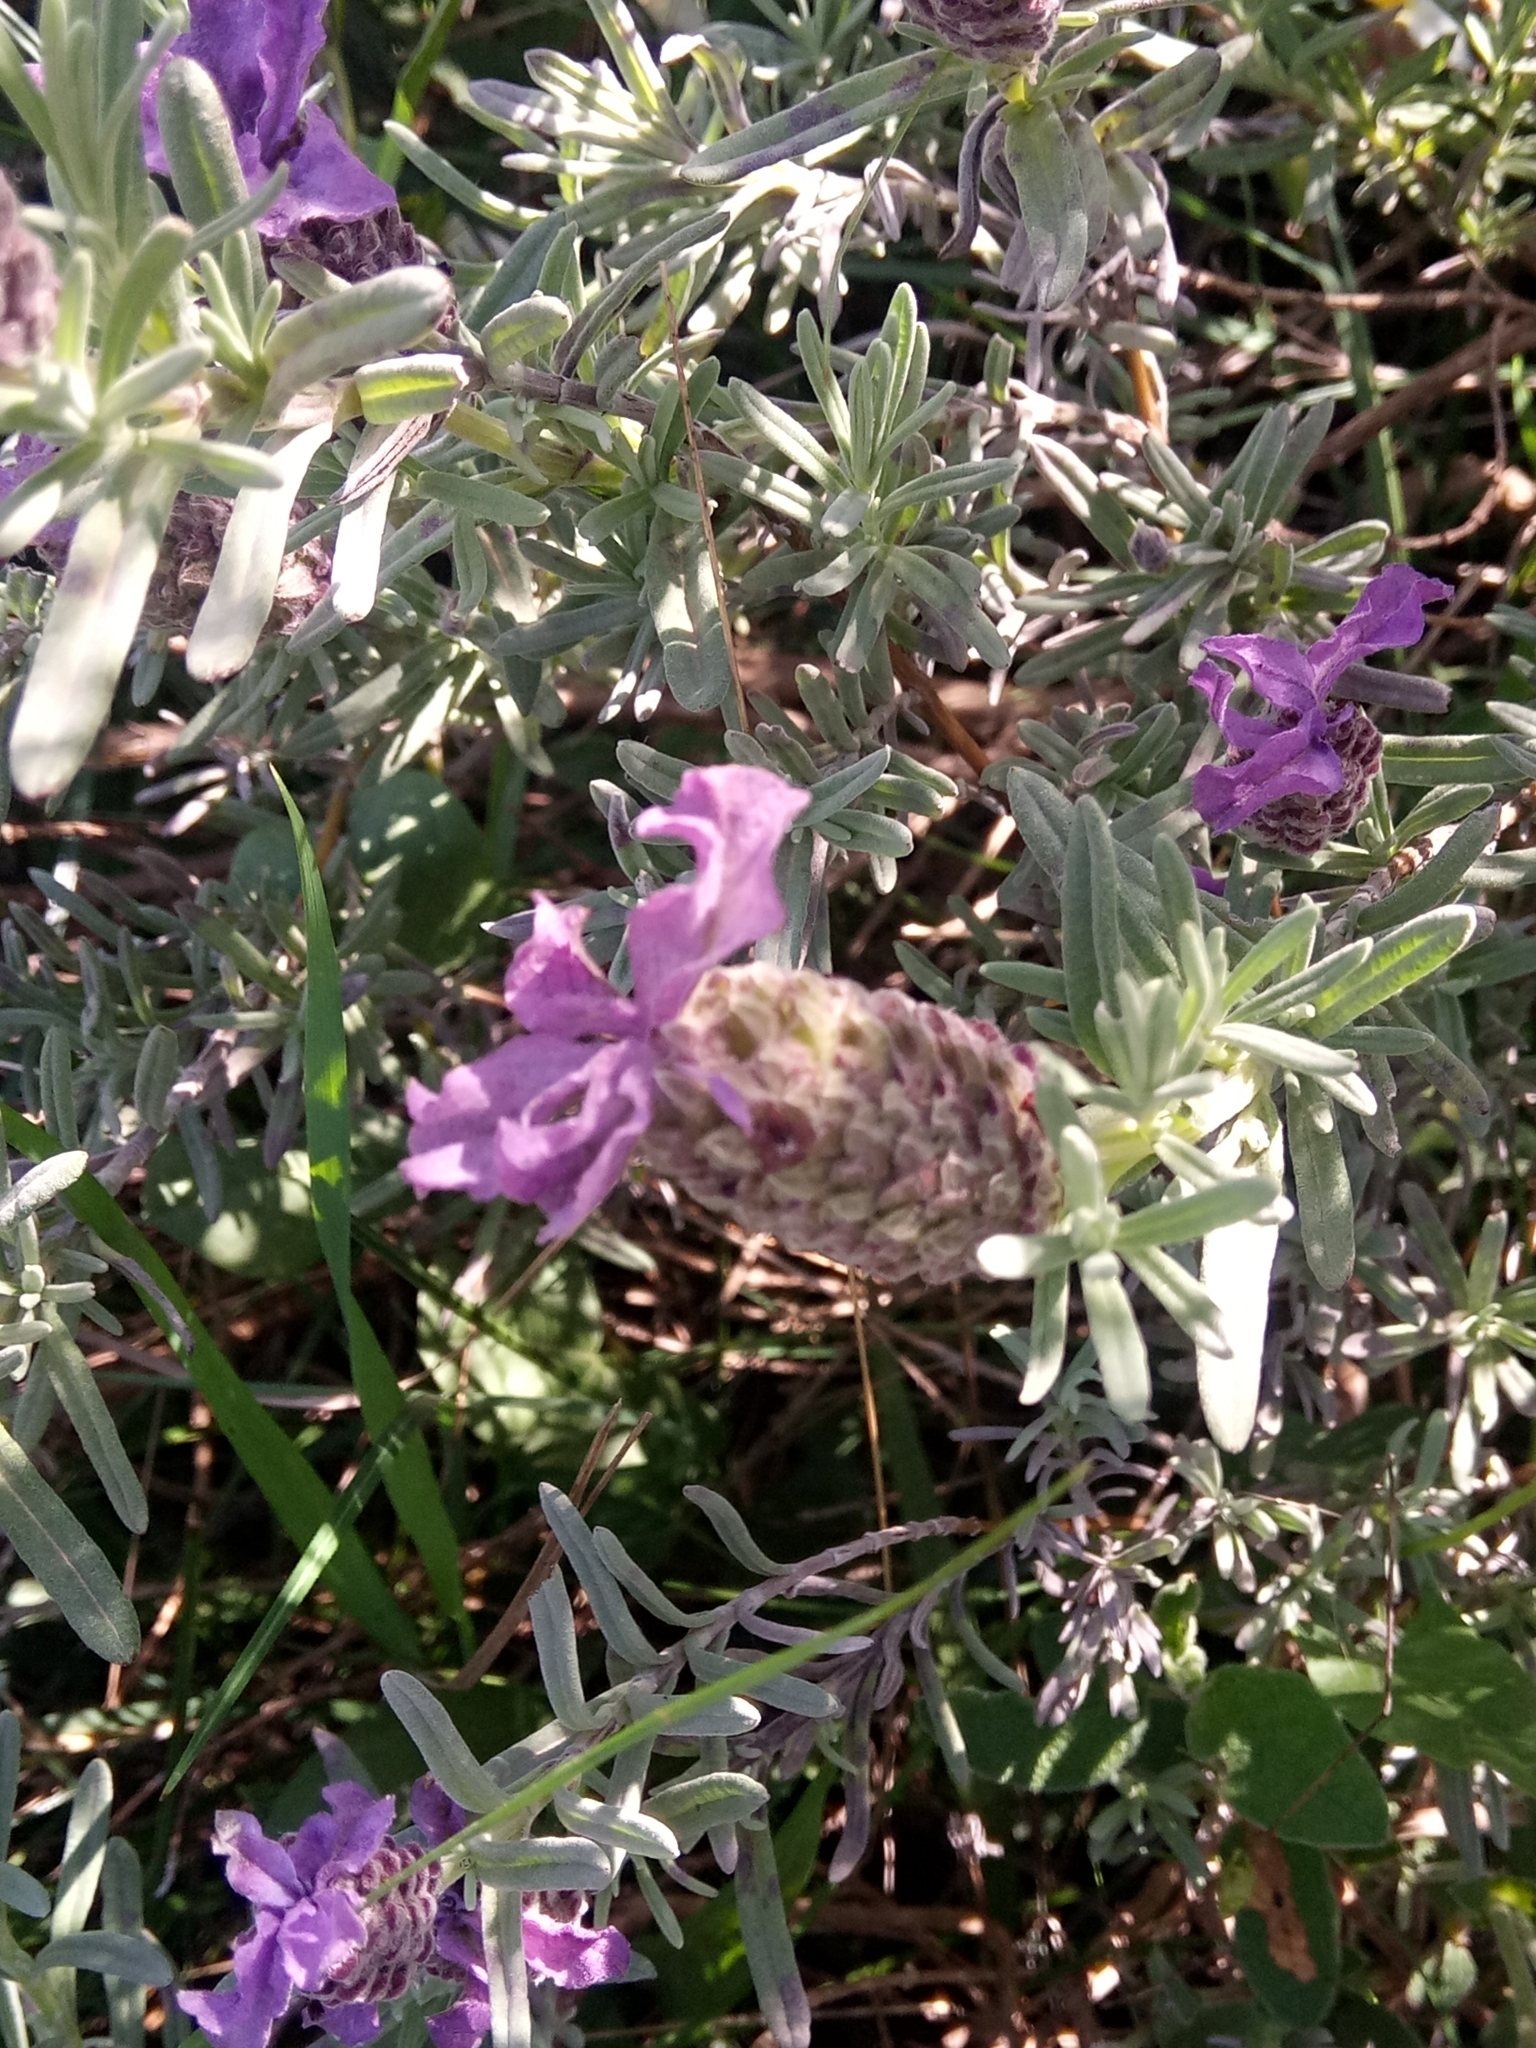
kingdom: Plantae
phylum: Tracheophyta
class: Magnoliopsida
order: Lamiales
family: Lamiaceae
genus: Lavandula
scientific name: Lavandula stoechas
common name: French lavender
